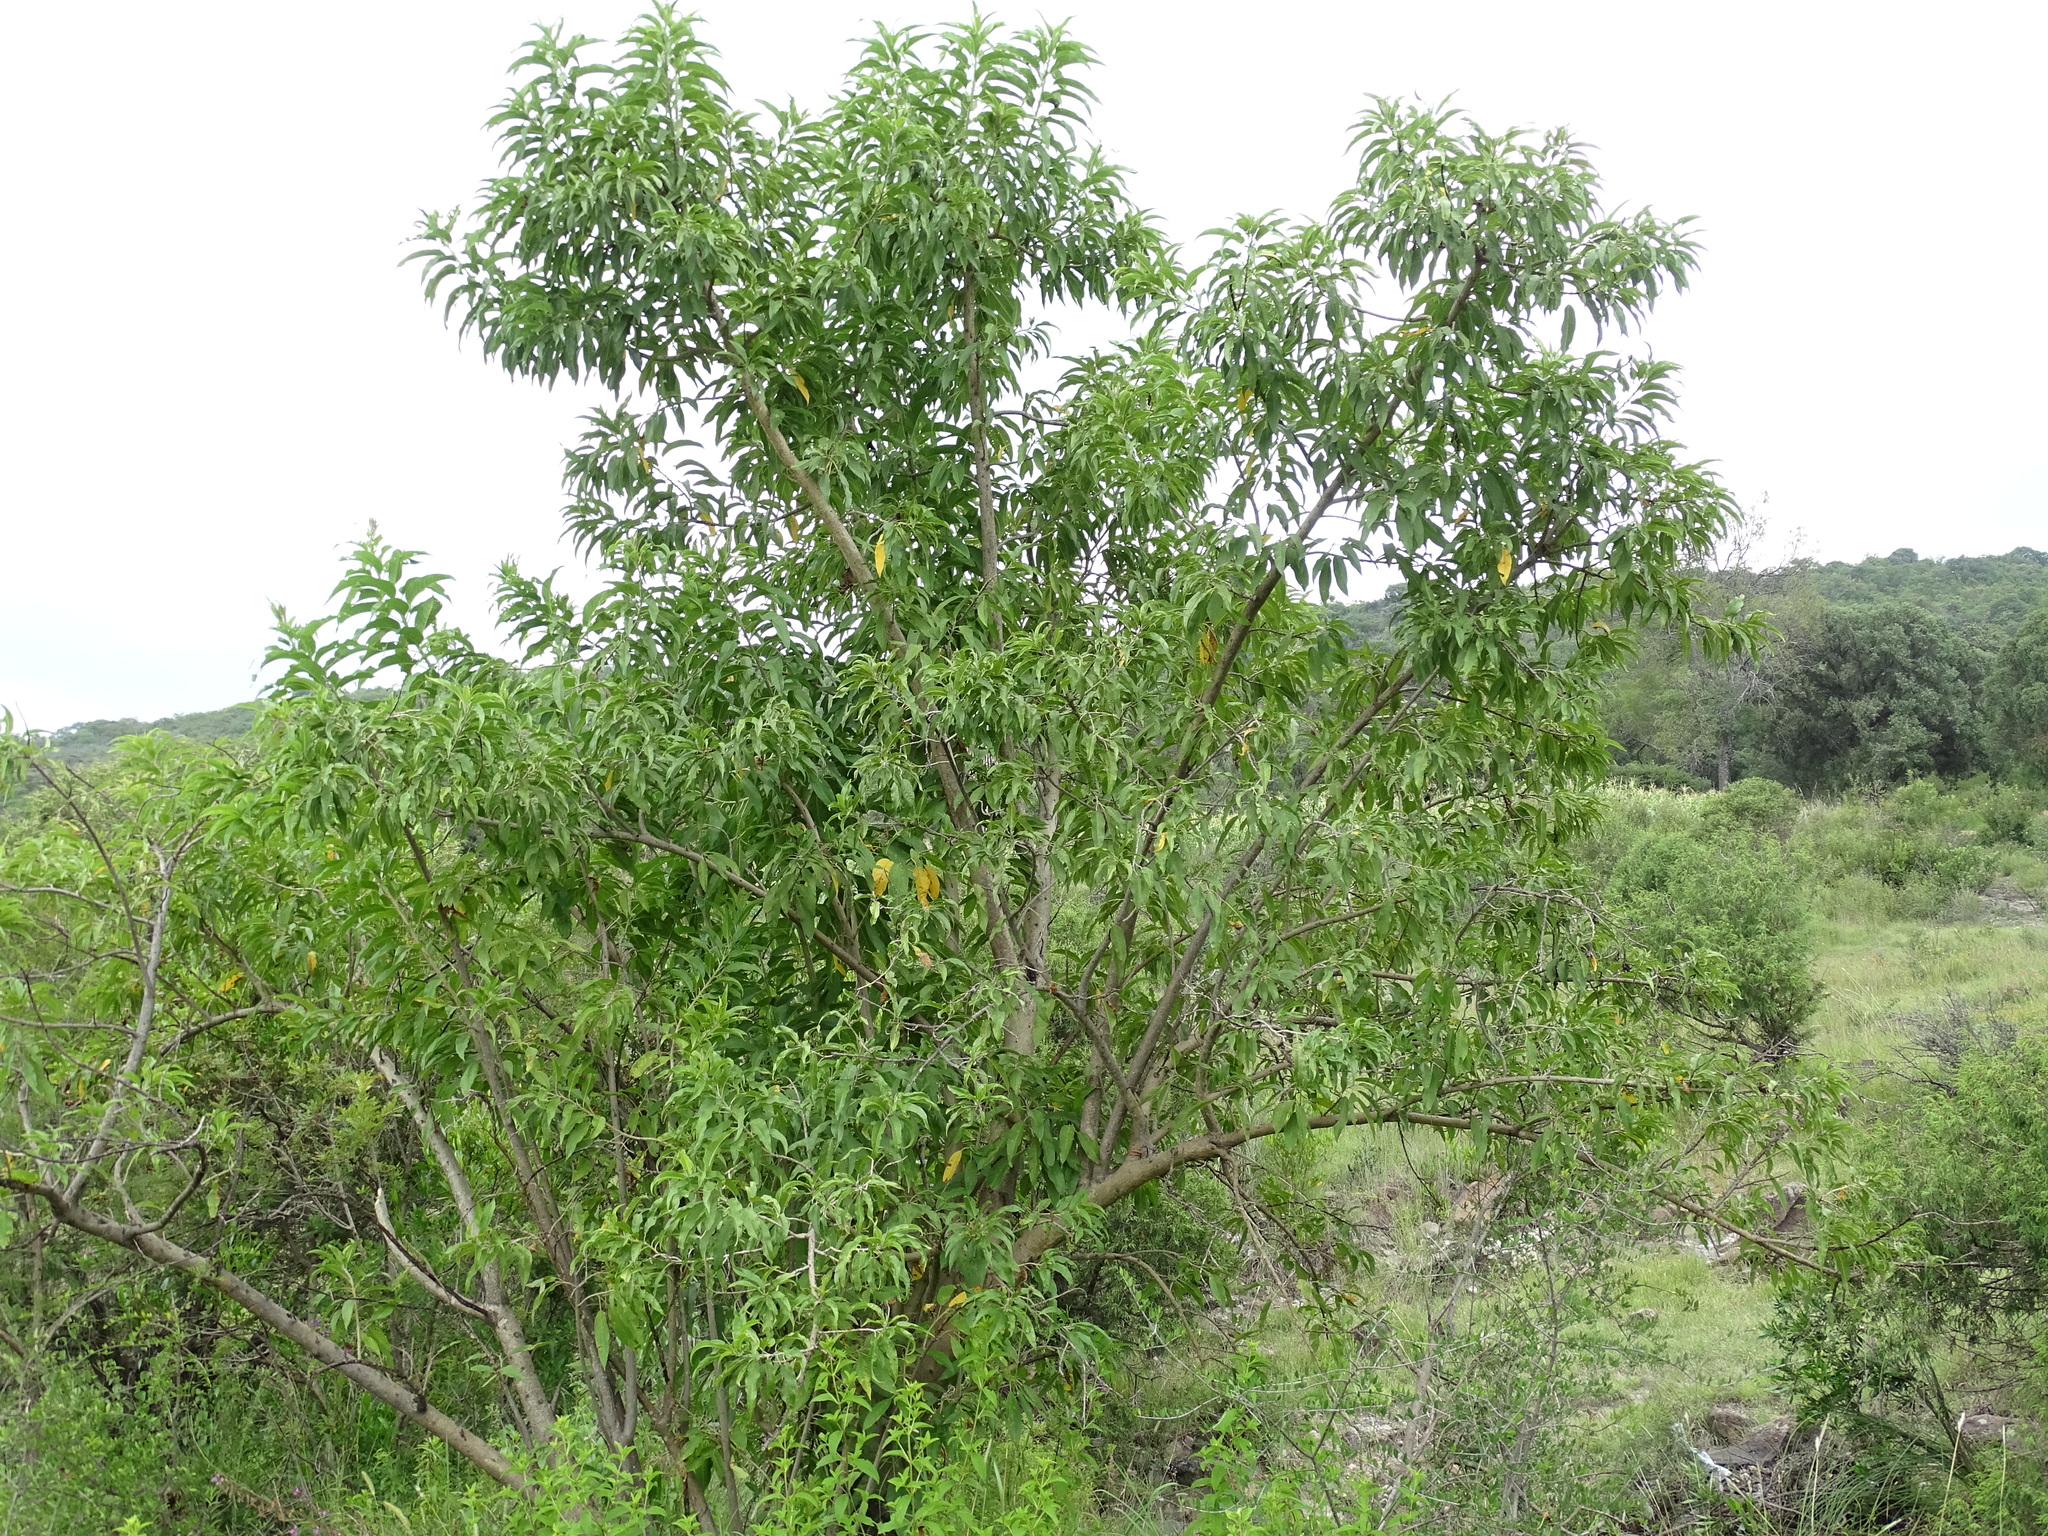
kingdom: Plantae
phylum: Tracheophyta
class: Magnoliopsida
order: Solanales
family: Convolvulaceae
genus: Ipomoea
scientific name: Ipomoea murucoides
